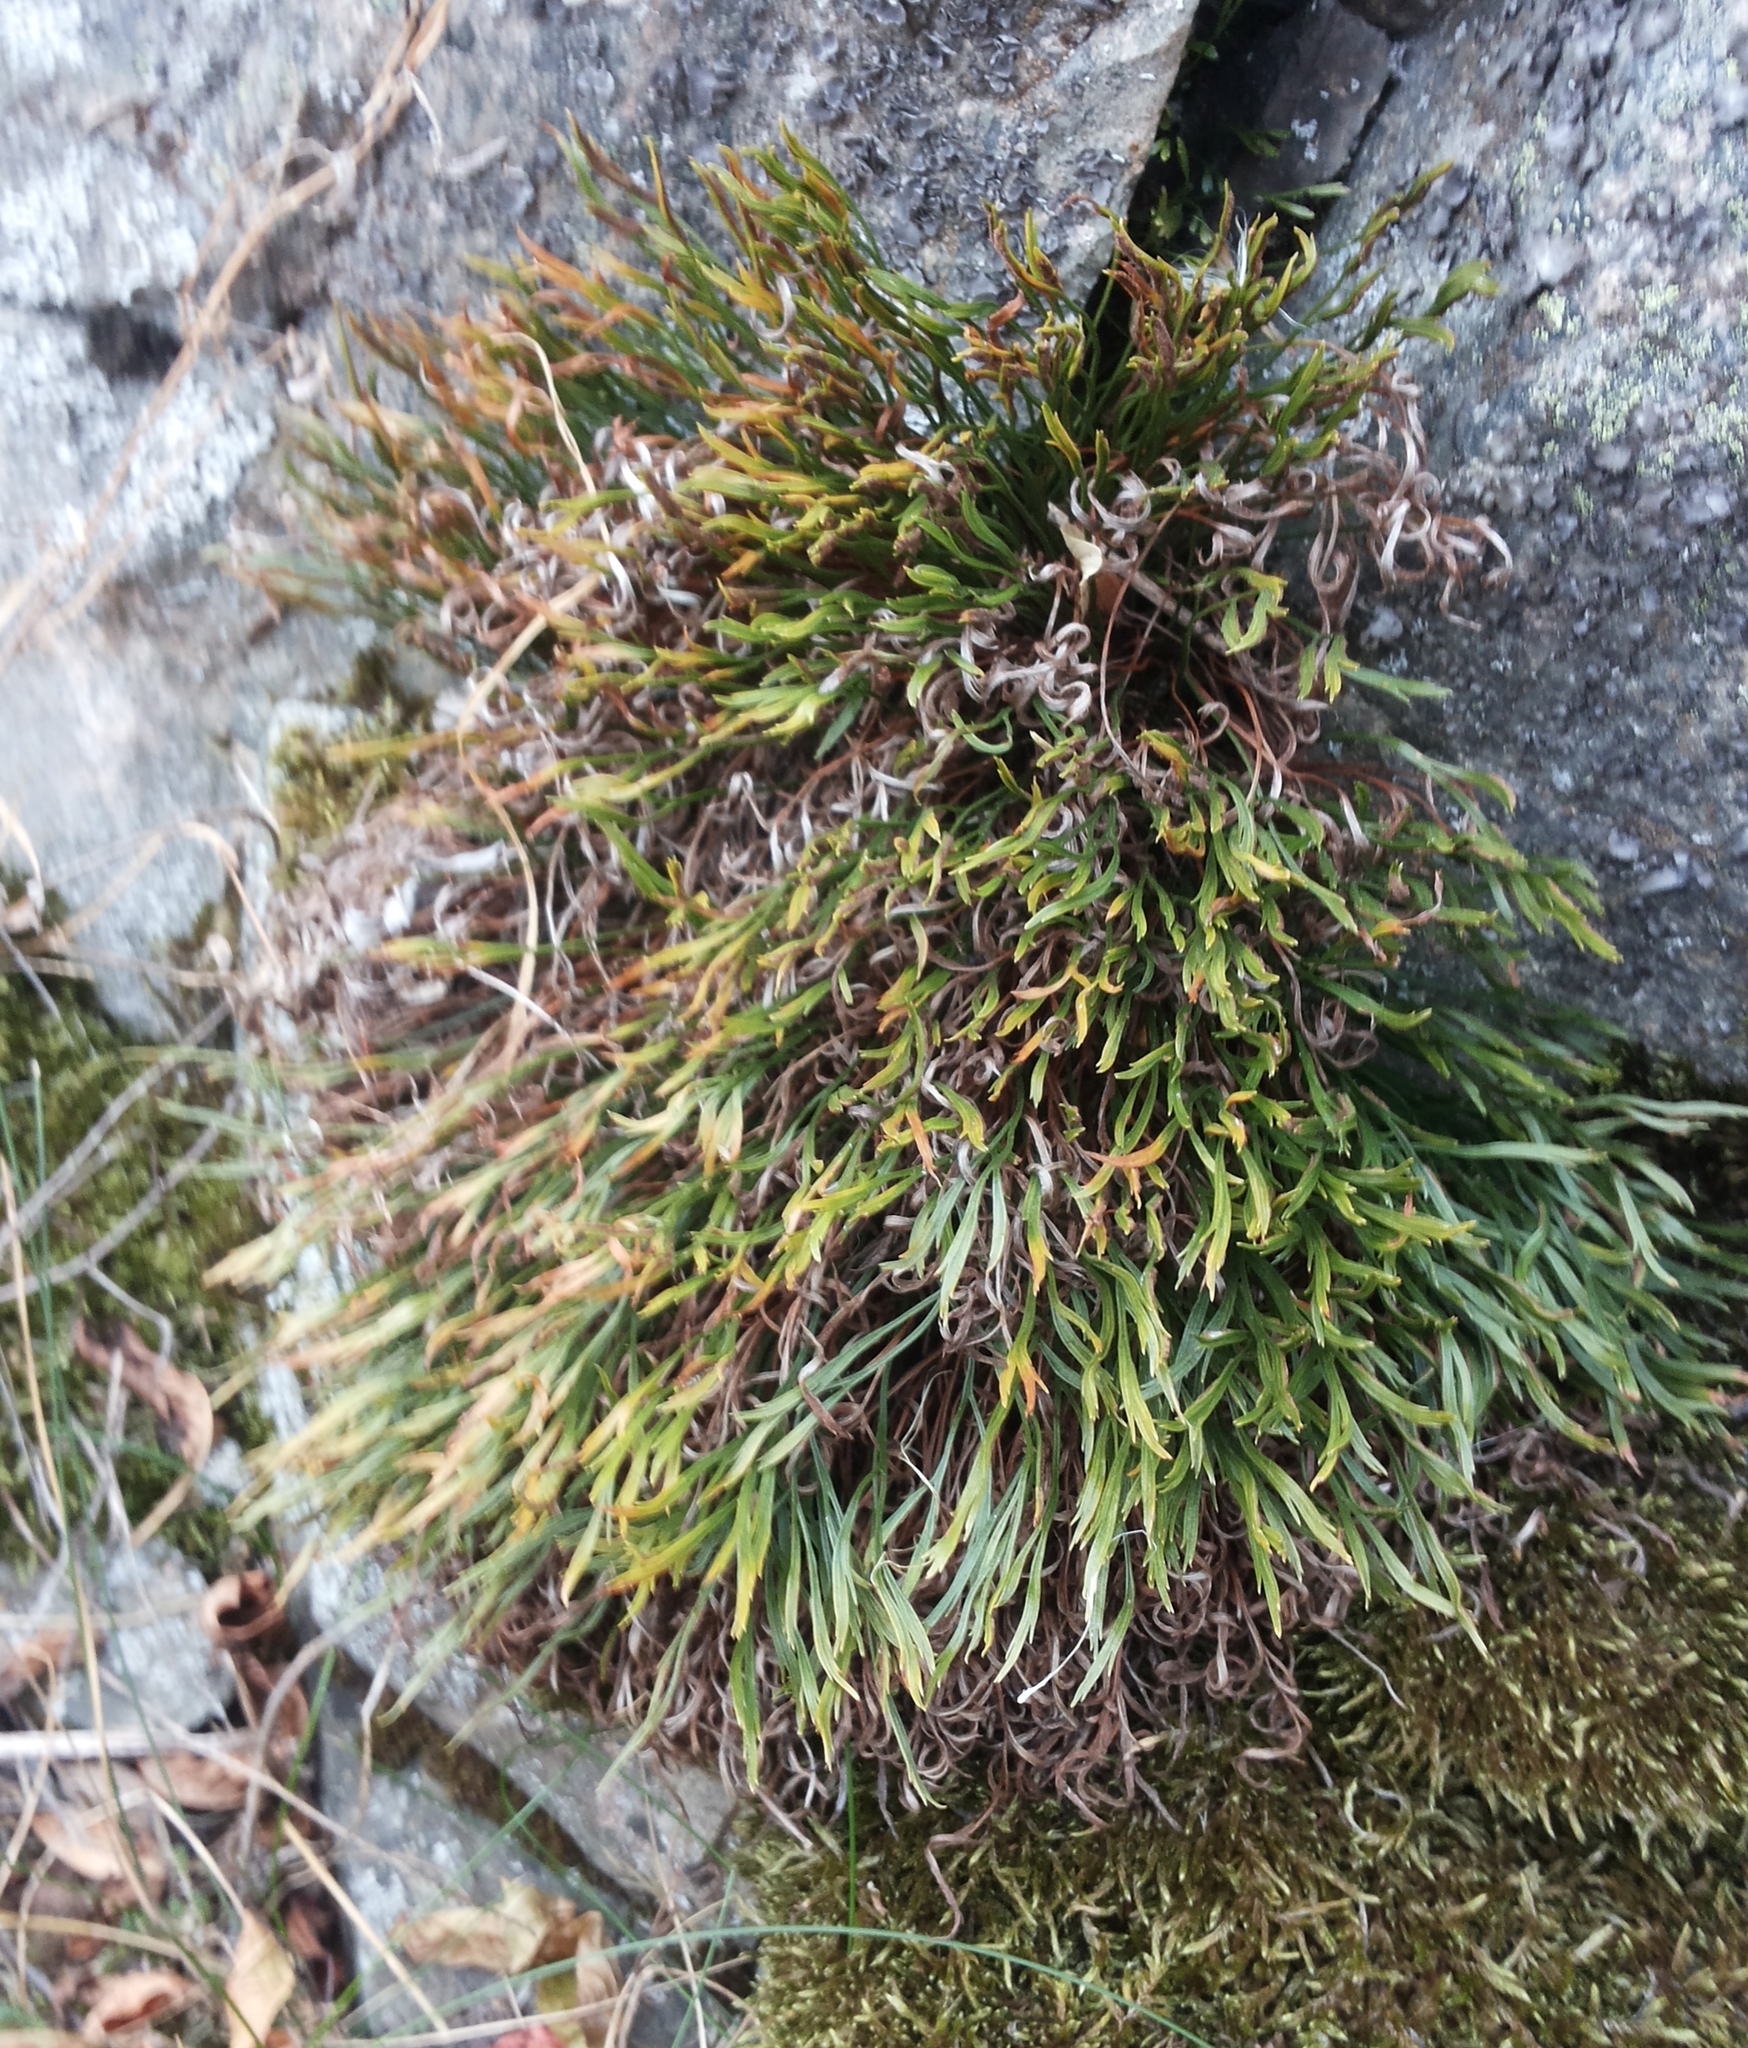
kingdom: Plantae
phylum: Tracheophyta
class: Polypodiopsida
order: Polypodiales
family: Aspleniaceae
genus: Asplenium
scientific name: Asplenium septentrionale
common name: Forked spleenwort
